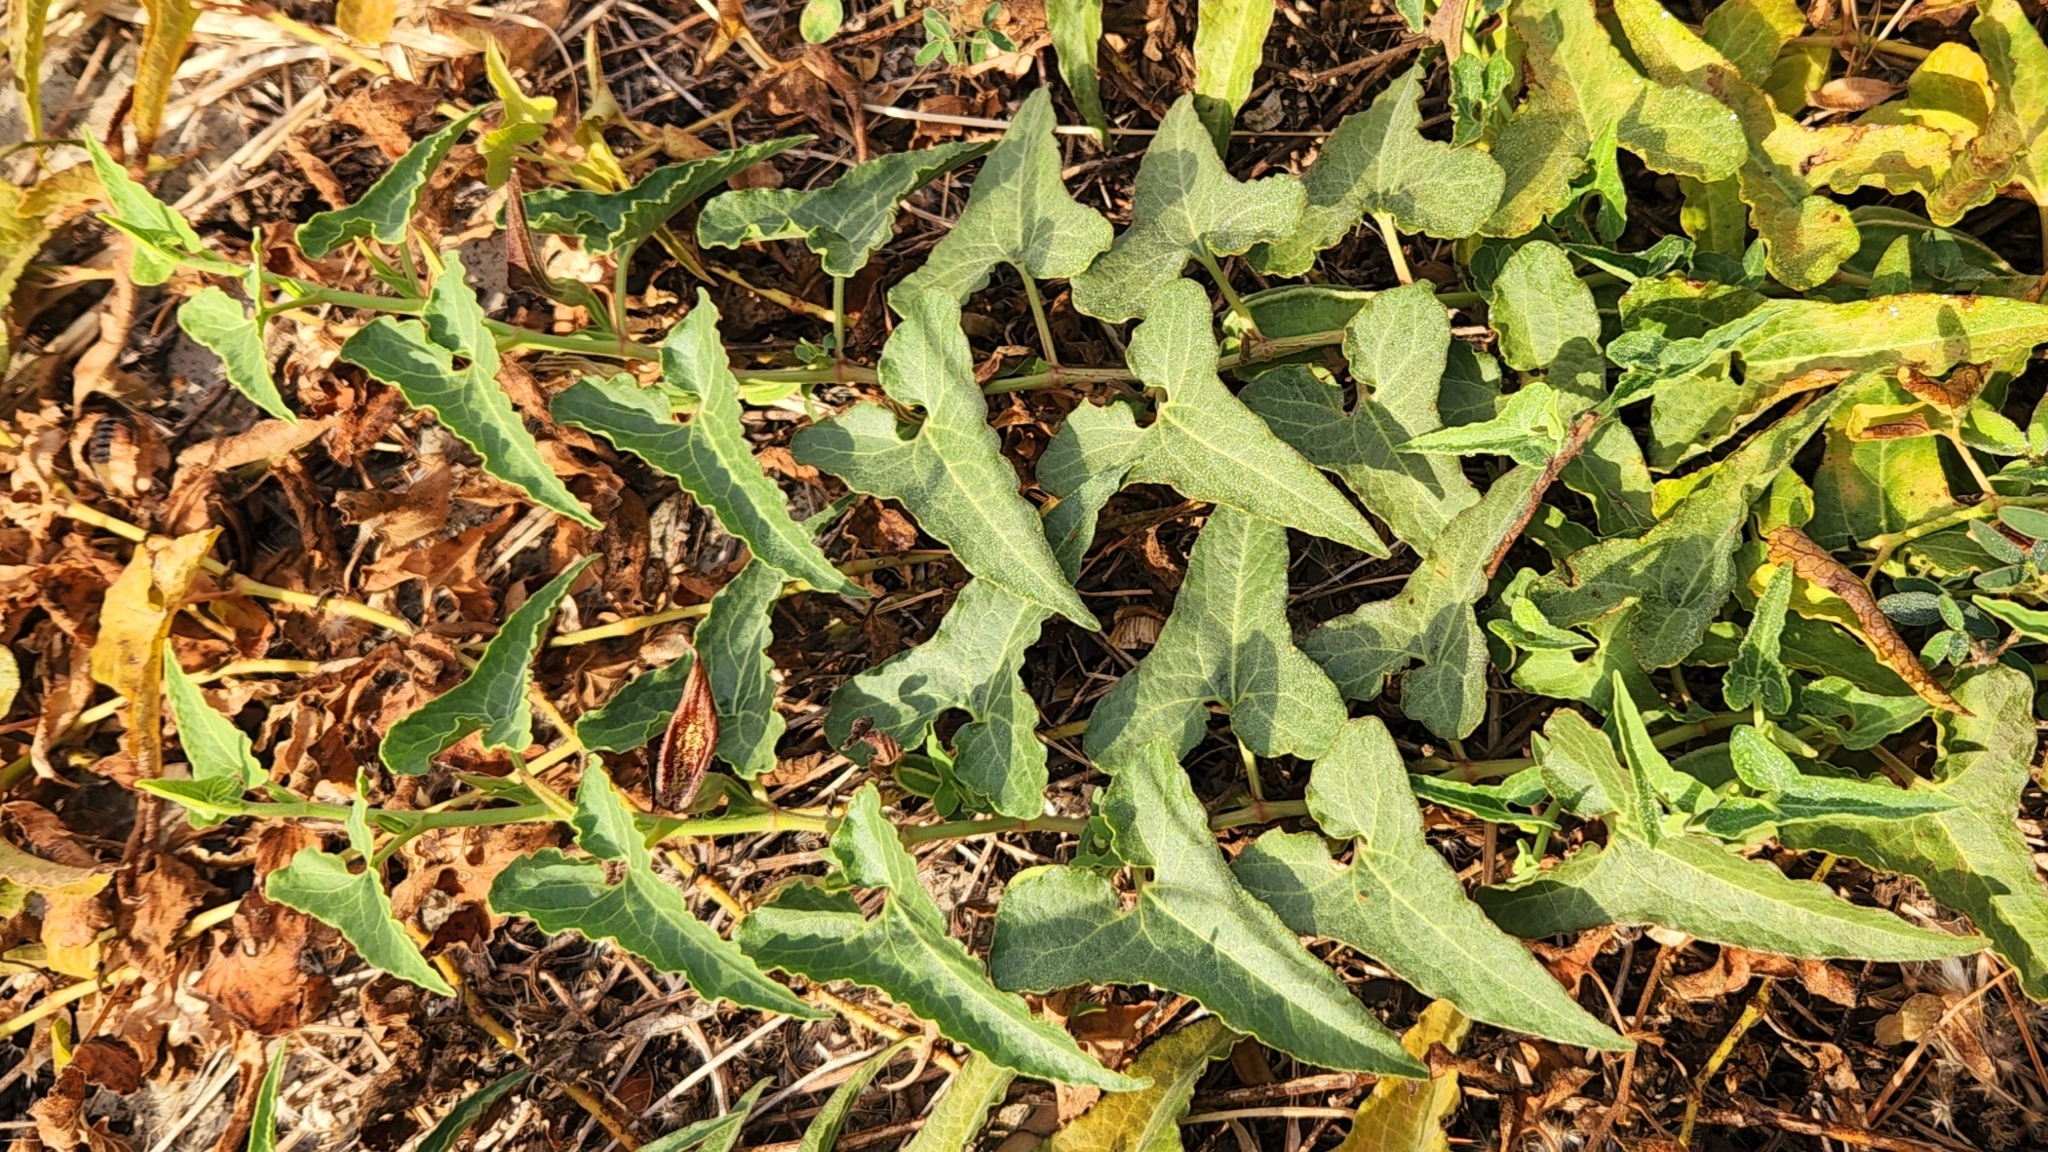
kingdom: Plantae
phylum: Tracheophyta
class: Magnoliopsida
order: Piperales
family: Aristolochiaceae
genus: Aristolochia
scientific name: Aristolochia watsonii
